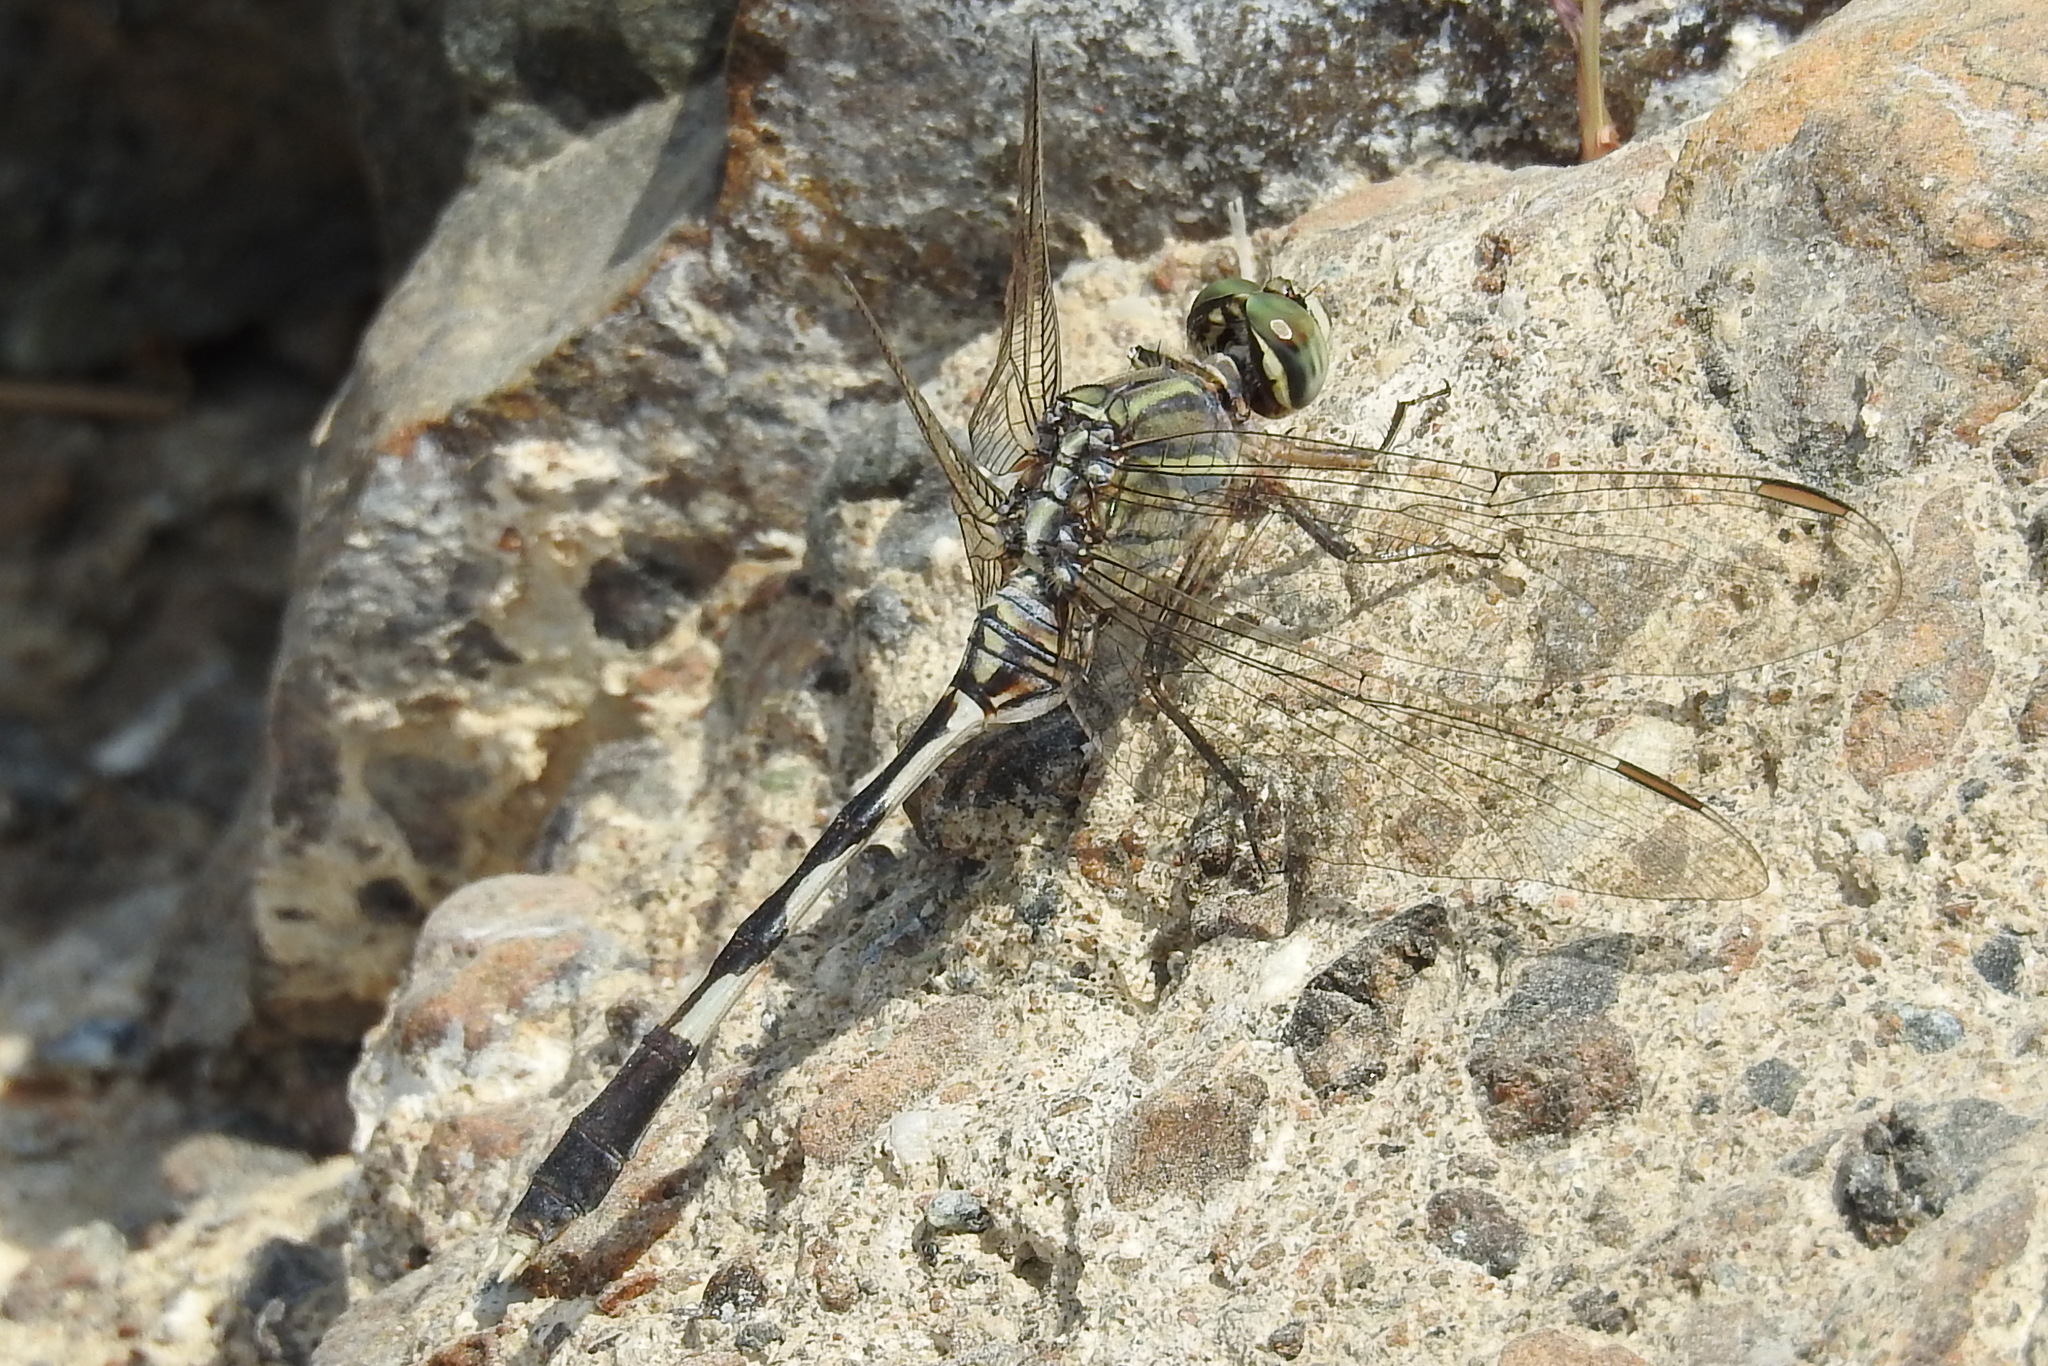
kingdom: Animalia
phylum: Arthropoda
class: Insecta
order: Odonata
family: Libellulidae
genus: Orthetrum
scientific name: Orthetrum sabina
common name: Slender skimmer
